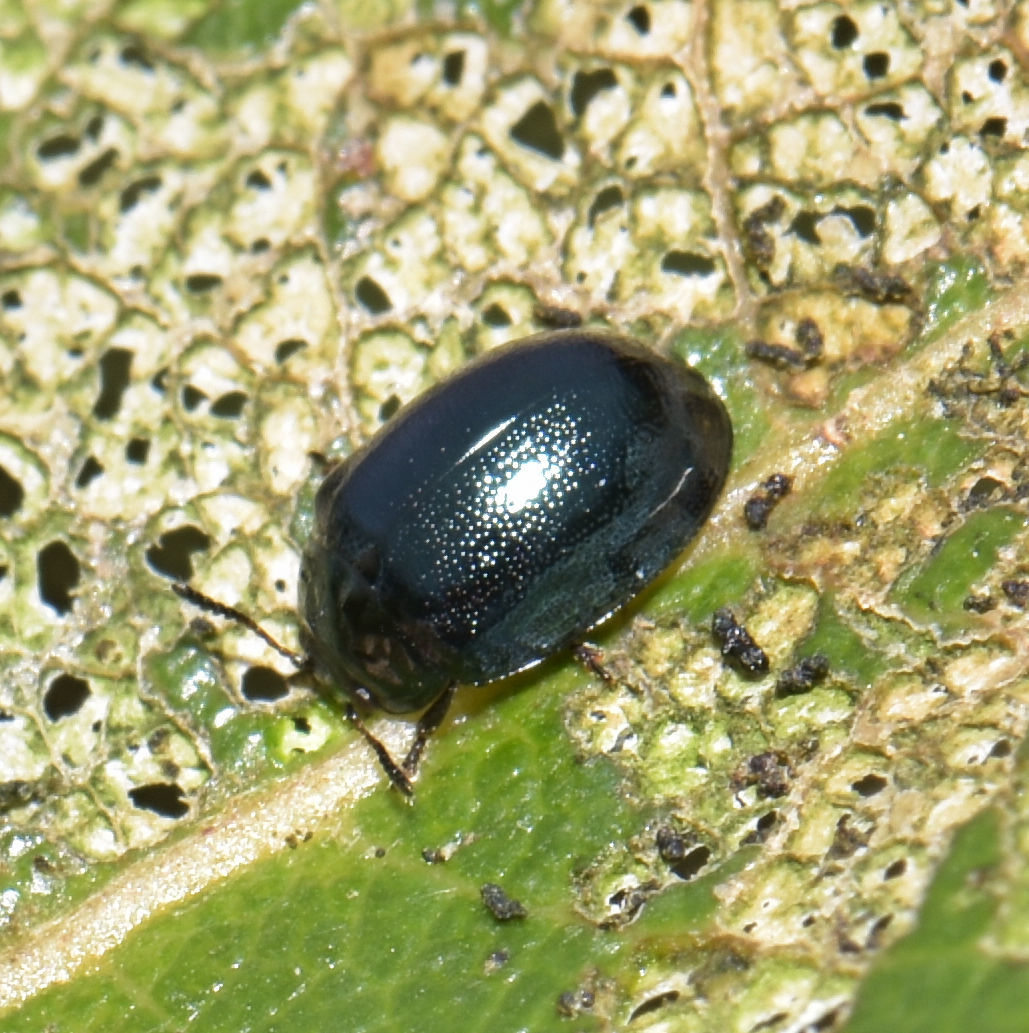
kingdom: Animalia
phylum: Arthropoda
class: Insecta
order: Coleoptera
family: Chrysomelidae
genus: Plagiodera
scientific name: Plagiodera versicolora
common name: Imported willow leaf beetle
